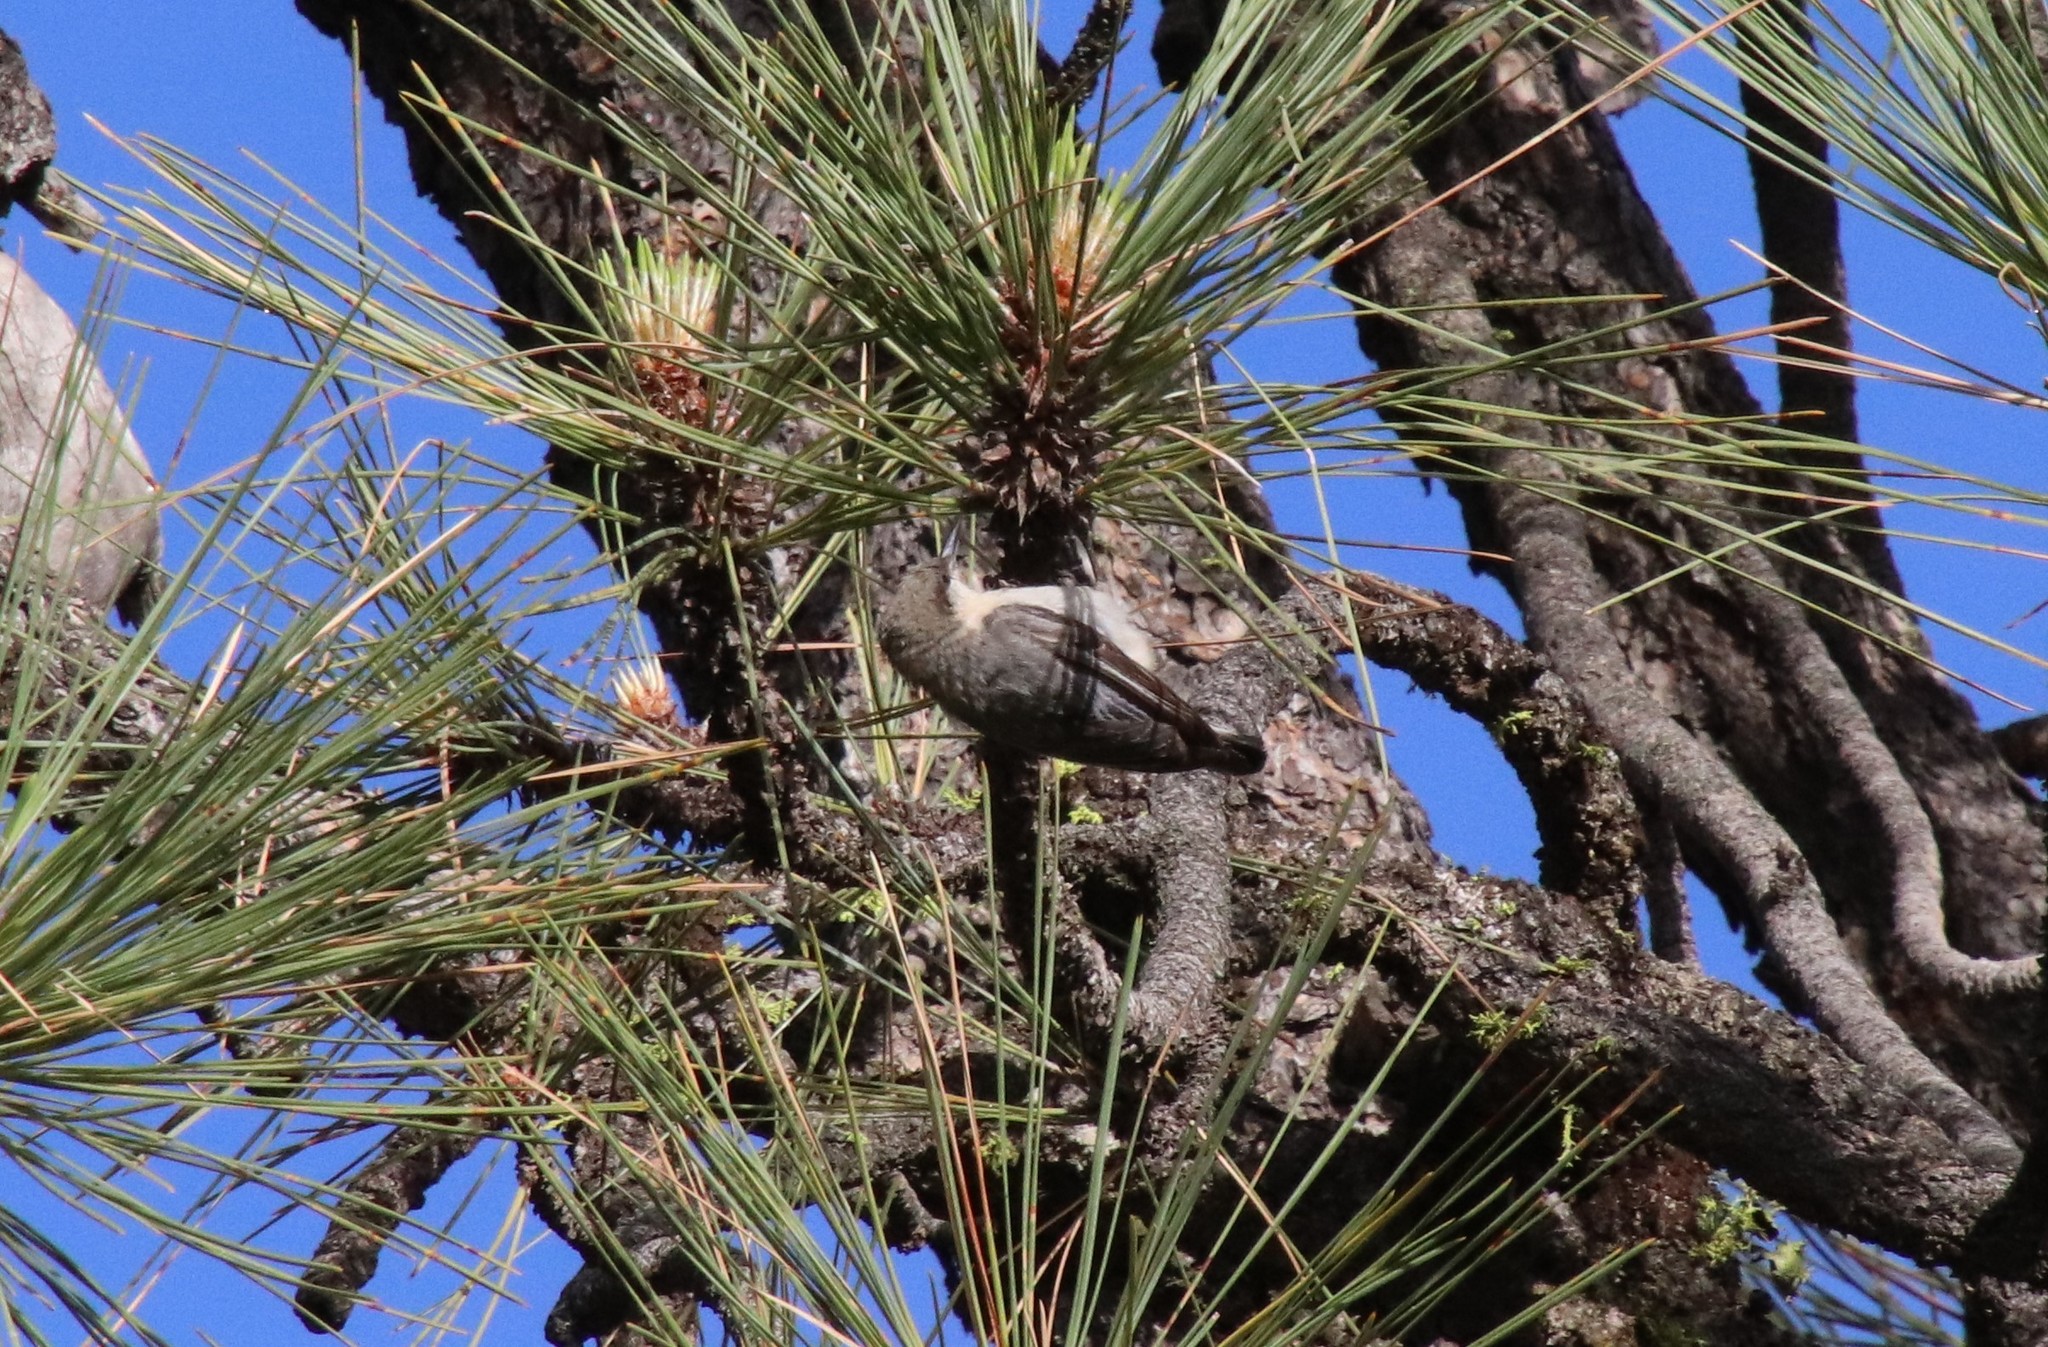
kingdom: Animalia
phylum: Chordata
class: Aves
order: Passeriformes
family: Sittidae
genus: Sitta
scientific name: Sitta pygmaea
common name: Pygmy nuthatch
